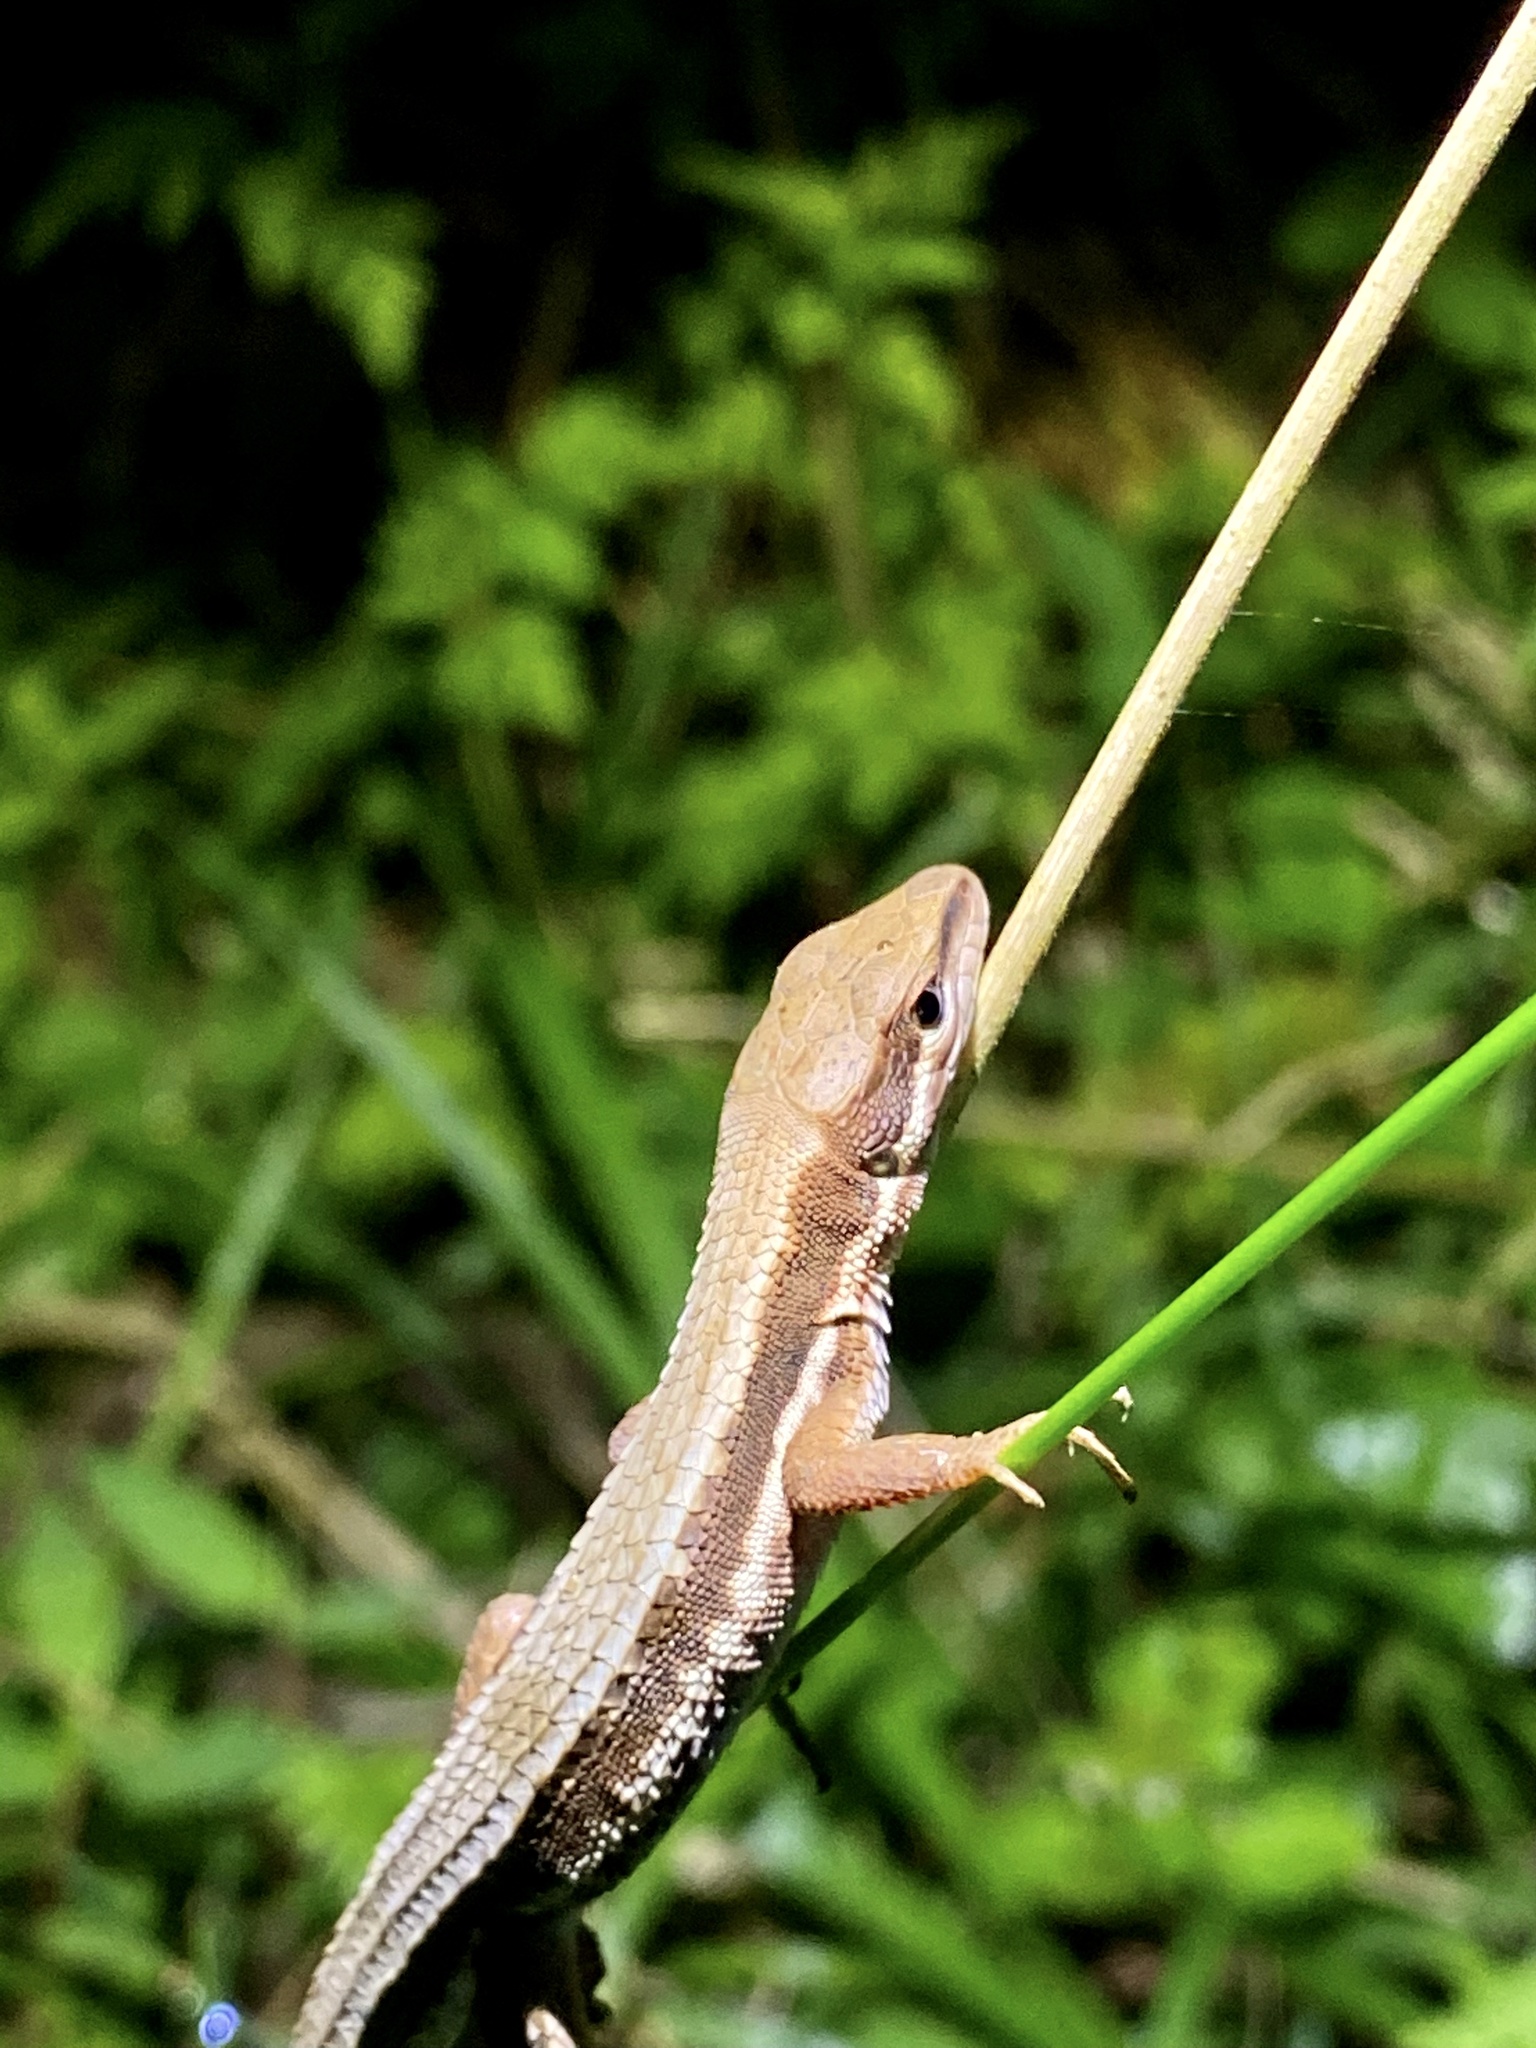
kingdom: Animalia
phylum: Chordata
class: Squamata
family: Lacertidae
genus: Takydromus
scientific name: Takydromus tachydromoides
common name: Japanese grass lizard
